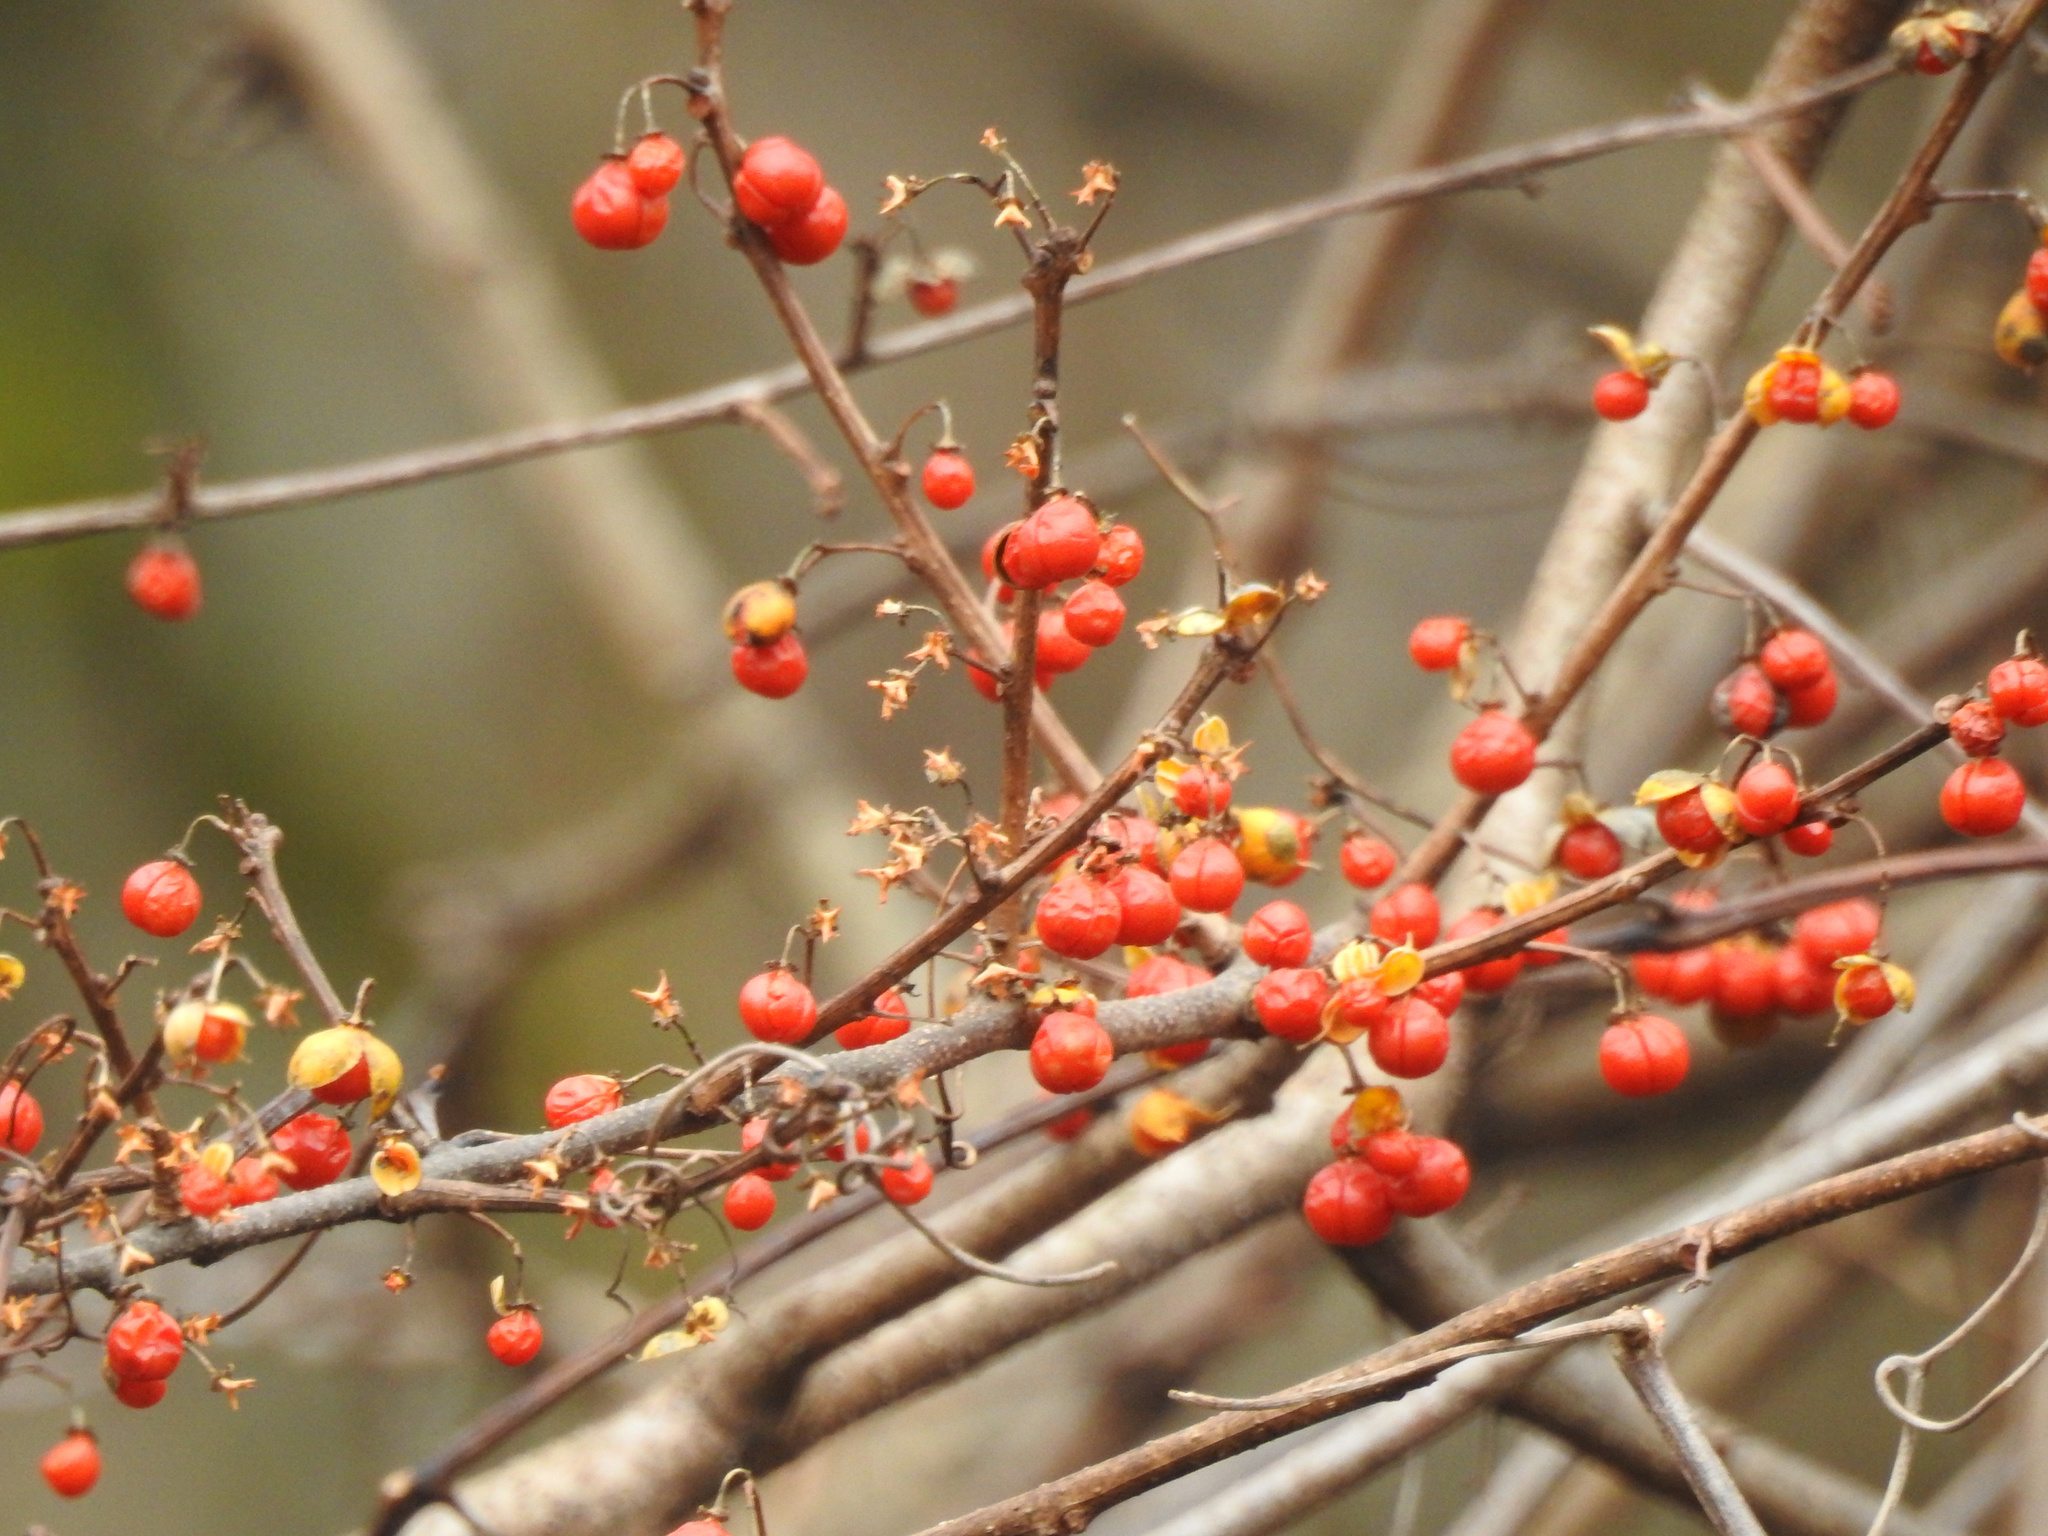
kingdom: Plantae
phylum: Tracheophyta
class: Magnoliopsida
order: Celastrales
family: Celastraceae
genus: Celastrus
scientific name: Celastrus orbiculatus
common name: Oriental bittersweet
